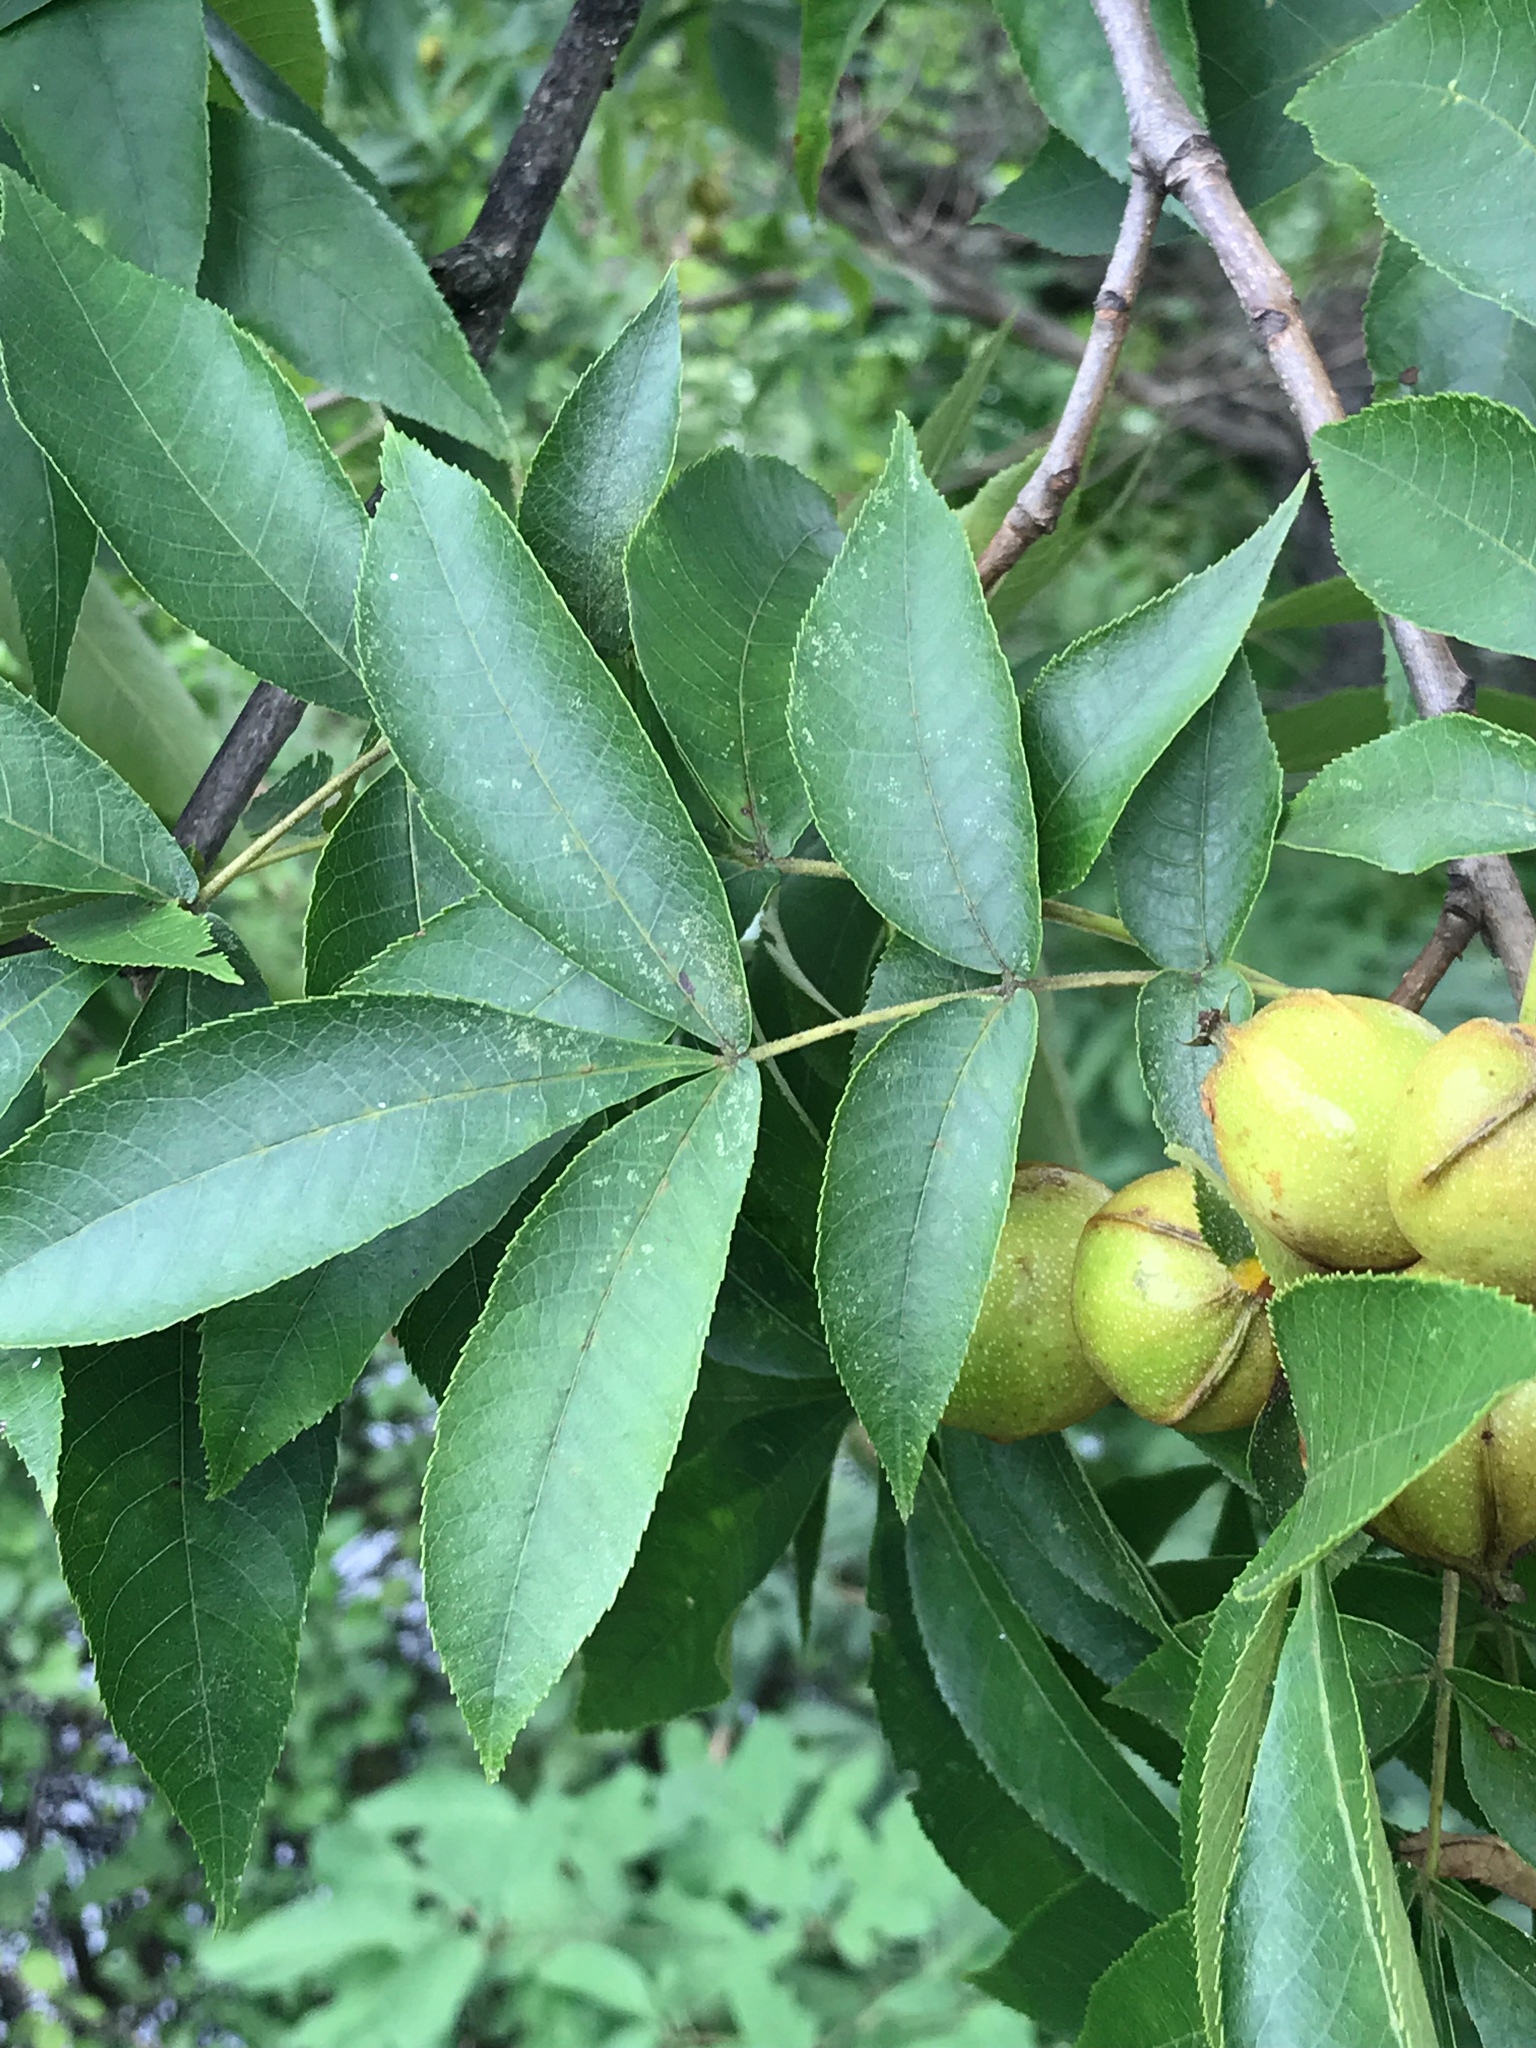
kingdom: Plantae
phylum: Tracheophyta
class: Magnoliopsida
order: Fagales
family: Juglandaceae
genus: Carya
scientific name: Carya cordiformis
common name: Bitternut hickory
